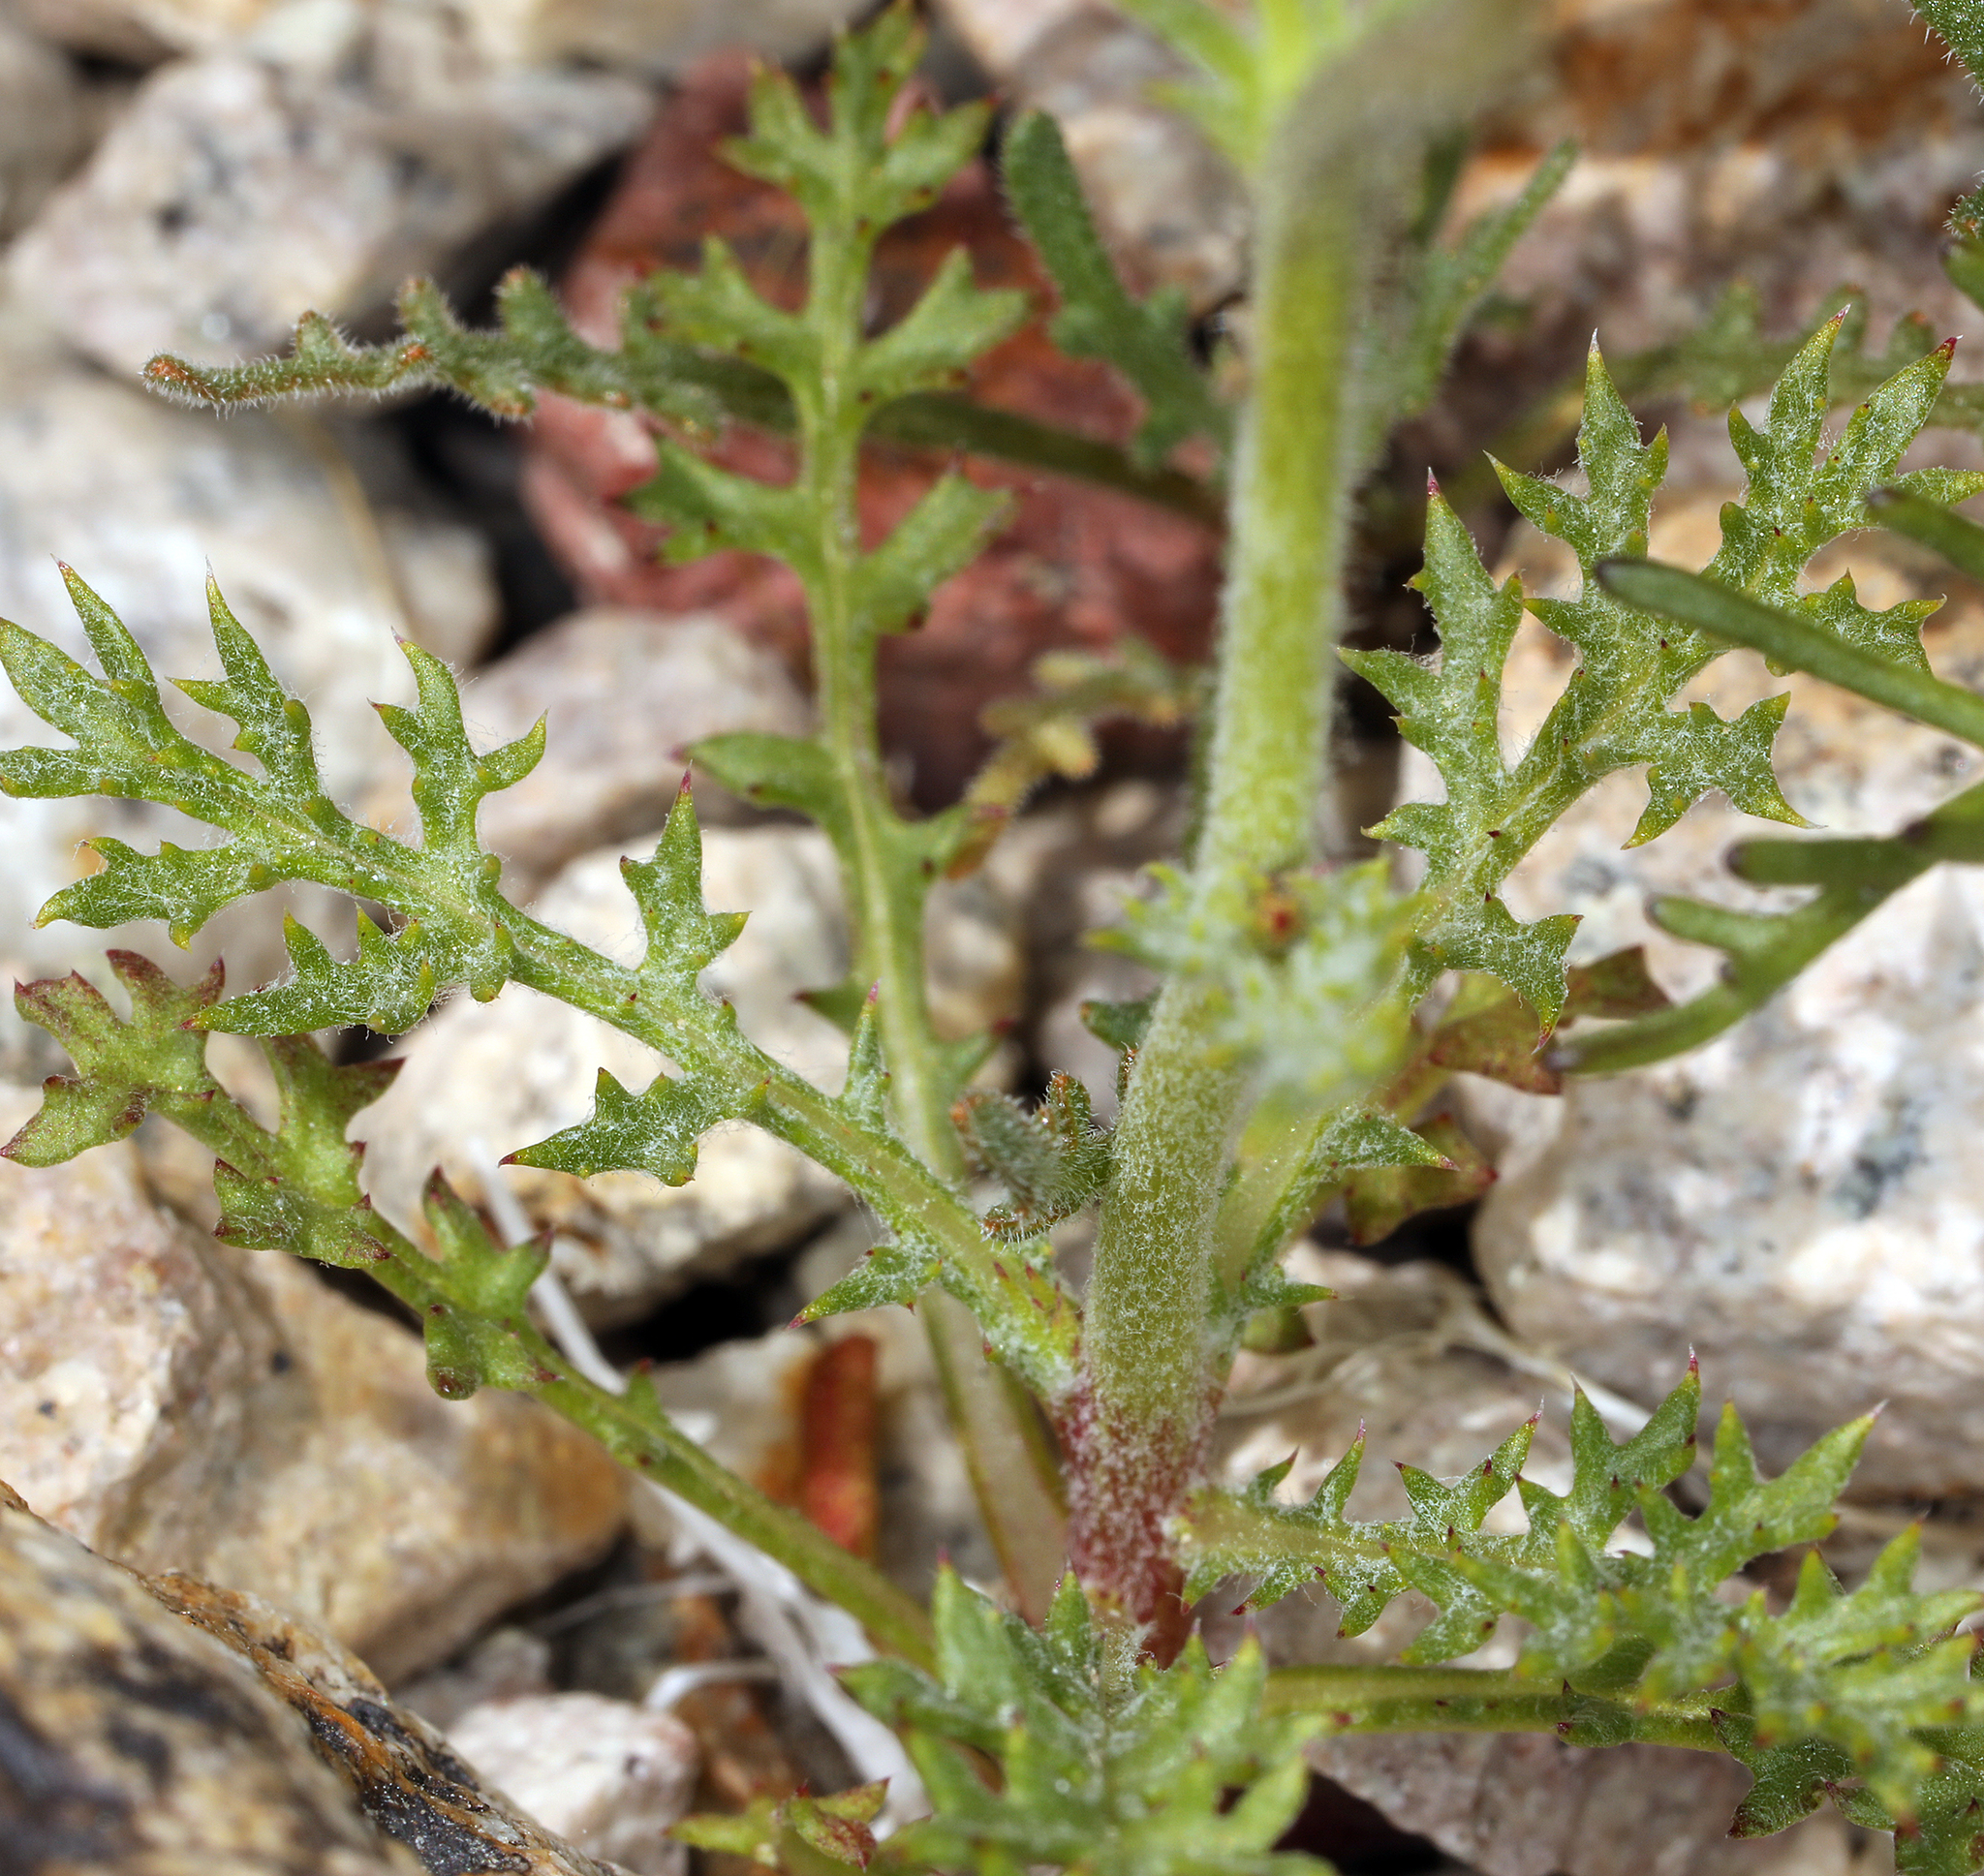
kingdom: Plantae
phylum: Tracheophyta
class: Magnoliopsida
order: Ericales
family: Polemoniaceae
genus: Gilia
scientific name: Gilia cana
